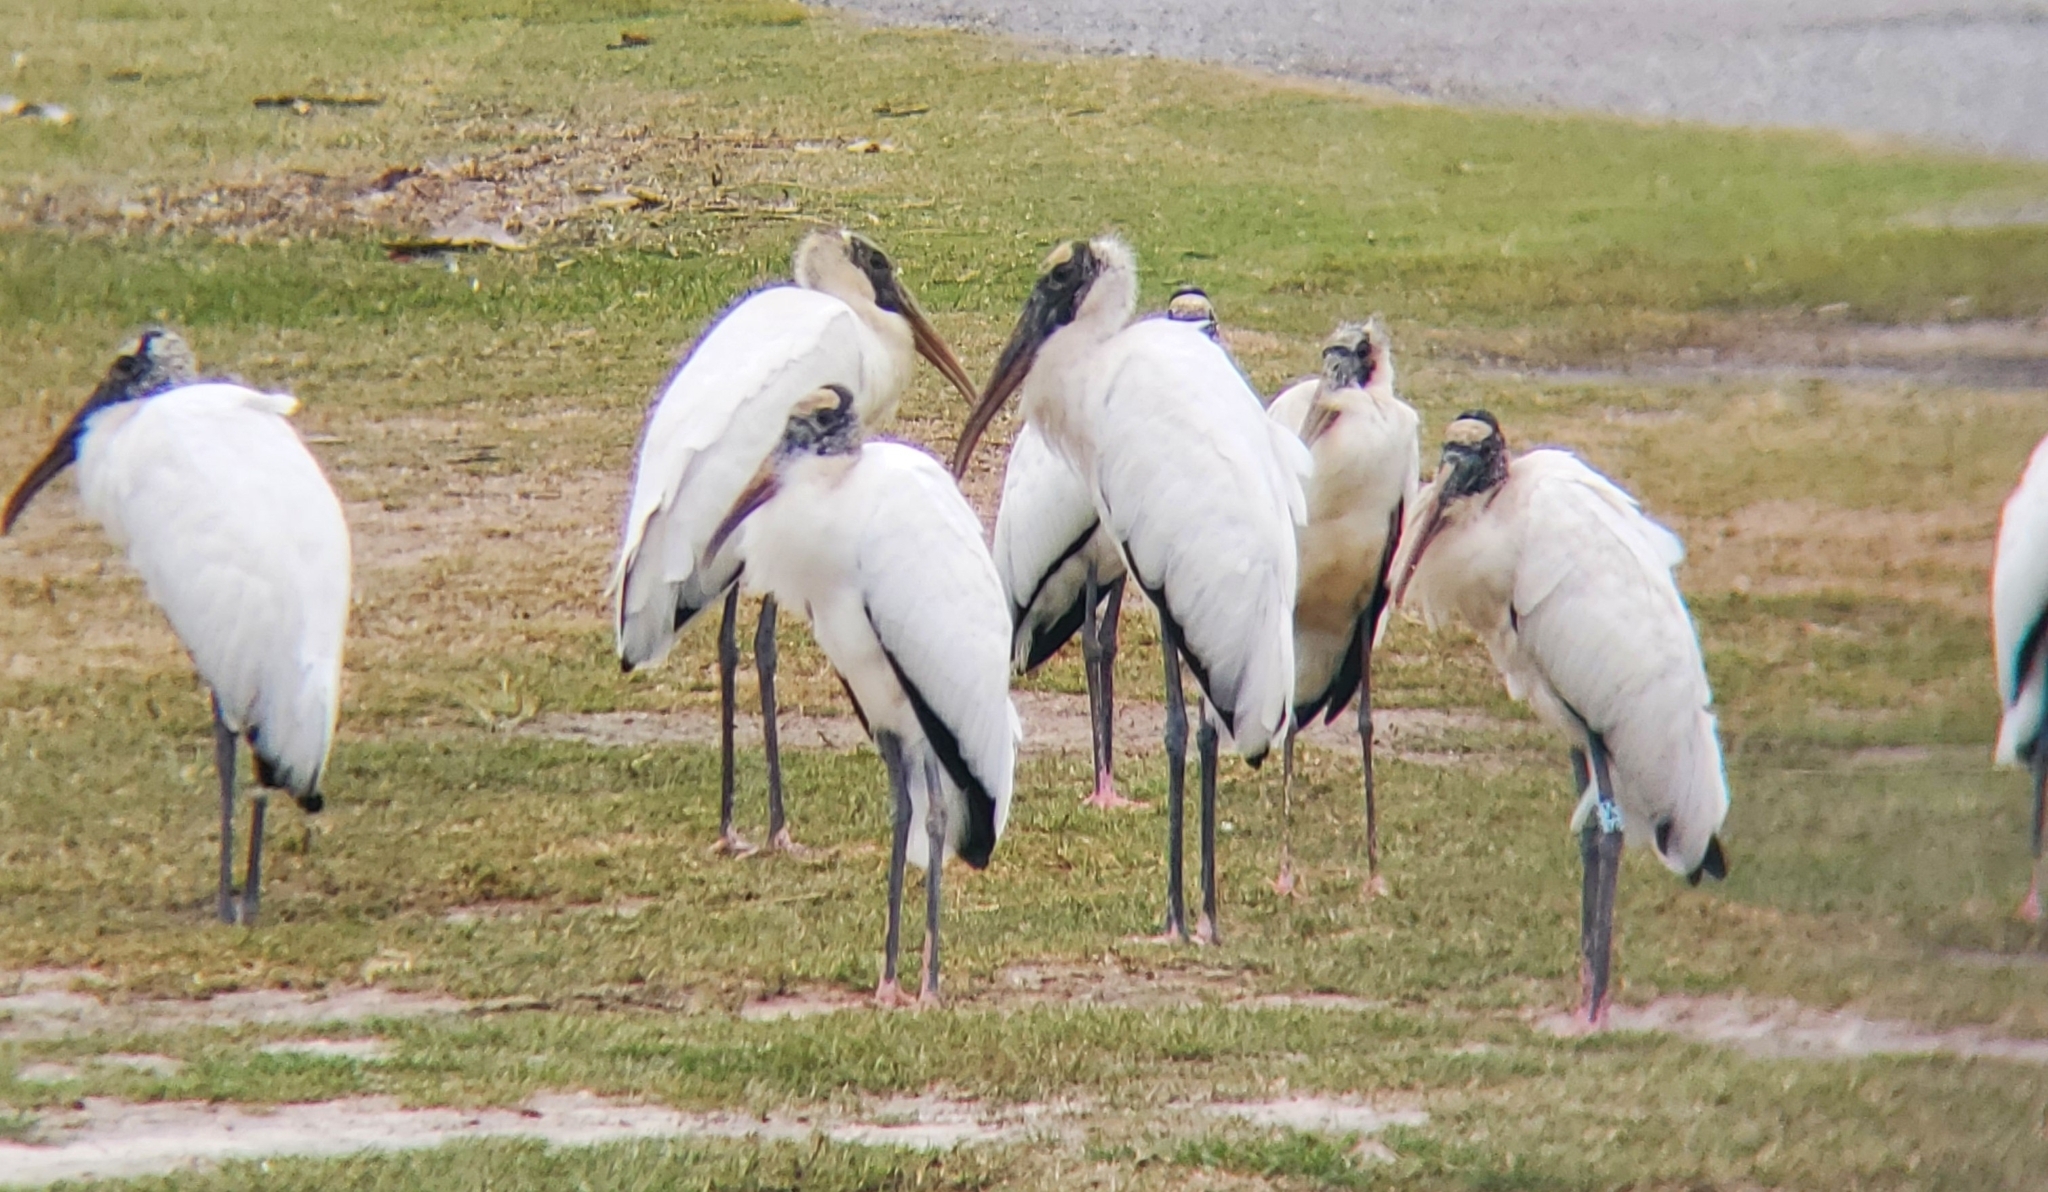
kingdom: Animalia
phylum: Chordata
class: Aves
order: Ciconiiformes
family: Ciconiidae
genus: Mycteria
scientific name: Mycteria americana
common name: Wood stork
